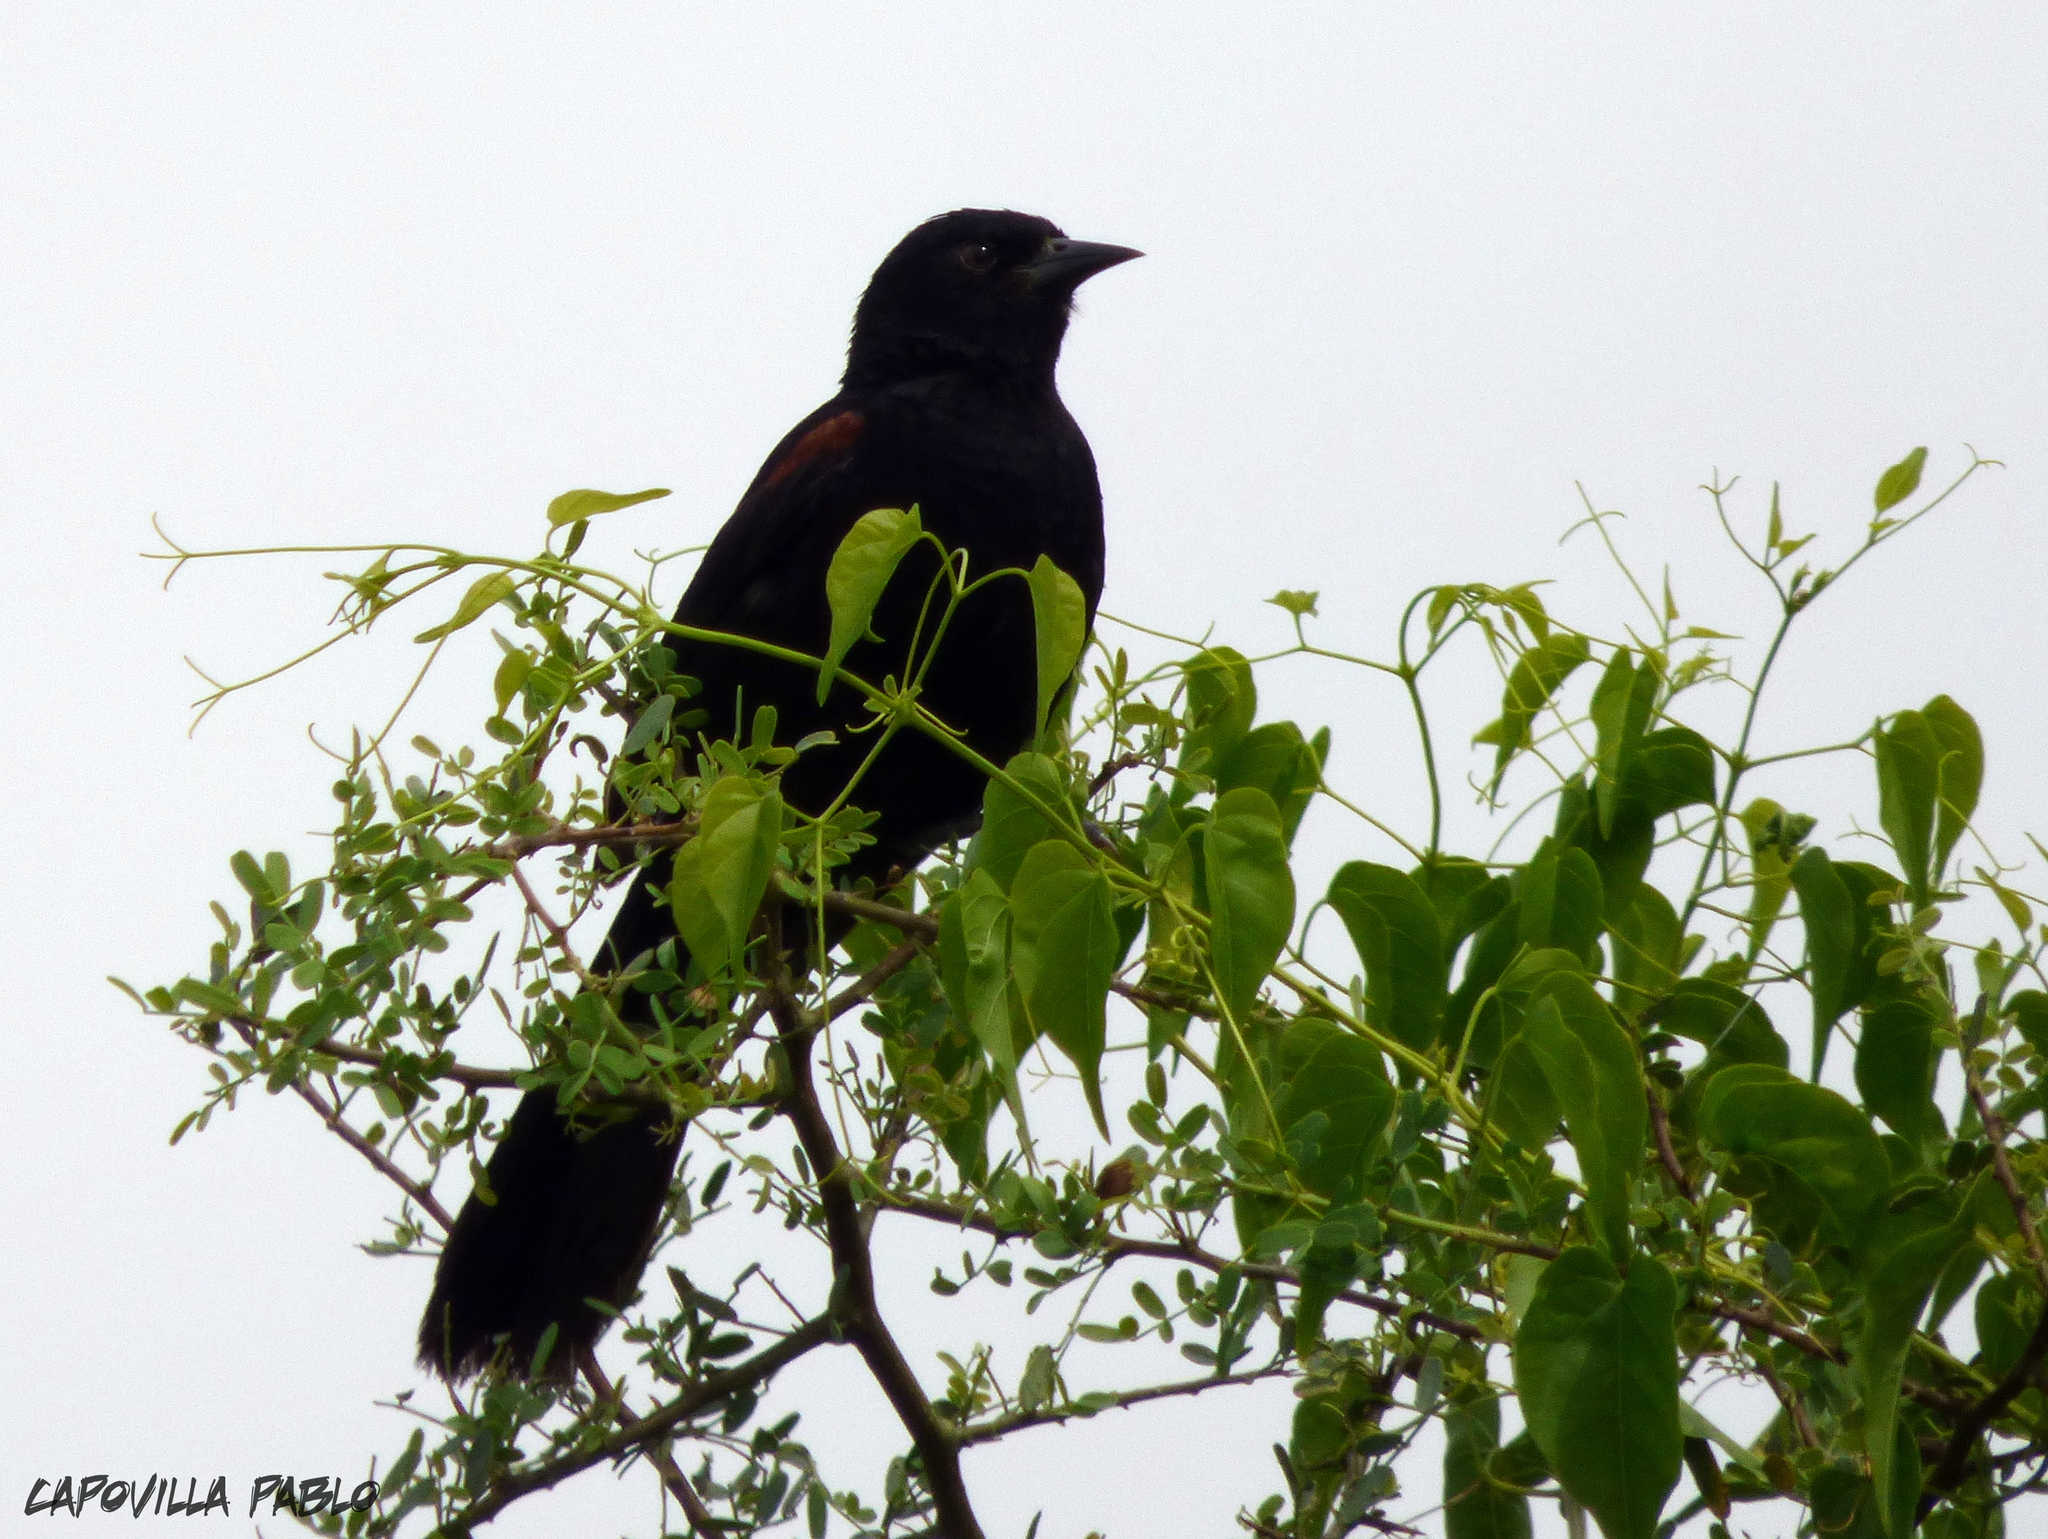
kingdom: Animalia
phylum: Chordata
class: Aves
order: Passeriformes
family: Icteridae
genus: Icterus
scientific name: Icterus cayanensis
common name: Epaulet oriole
